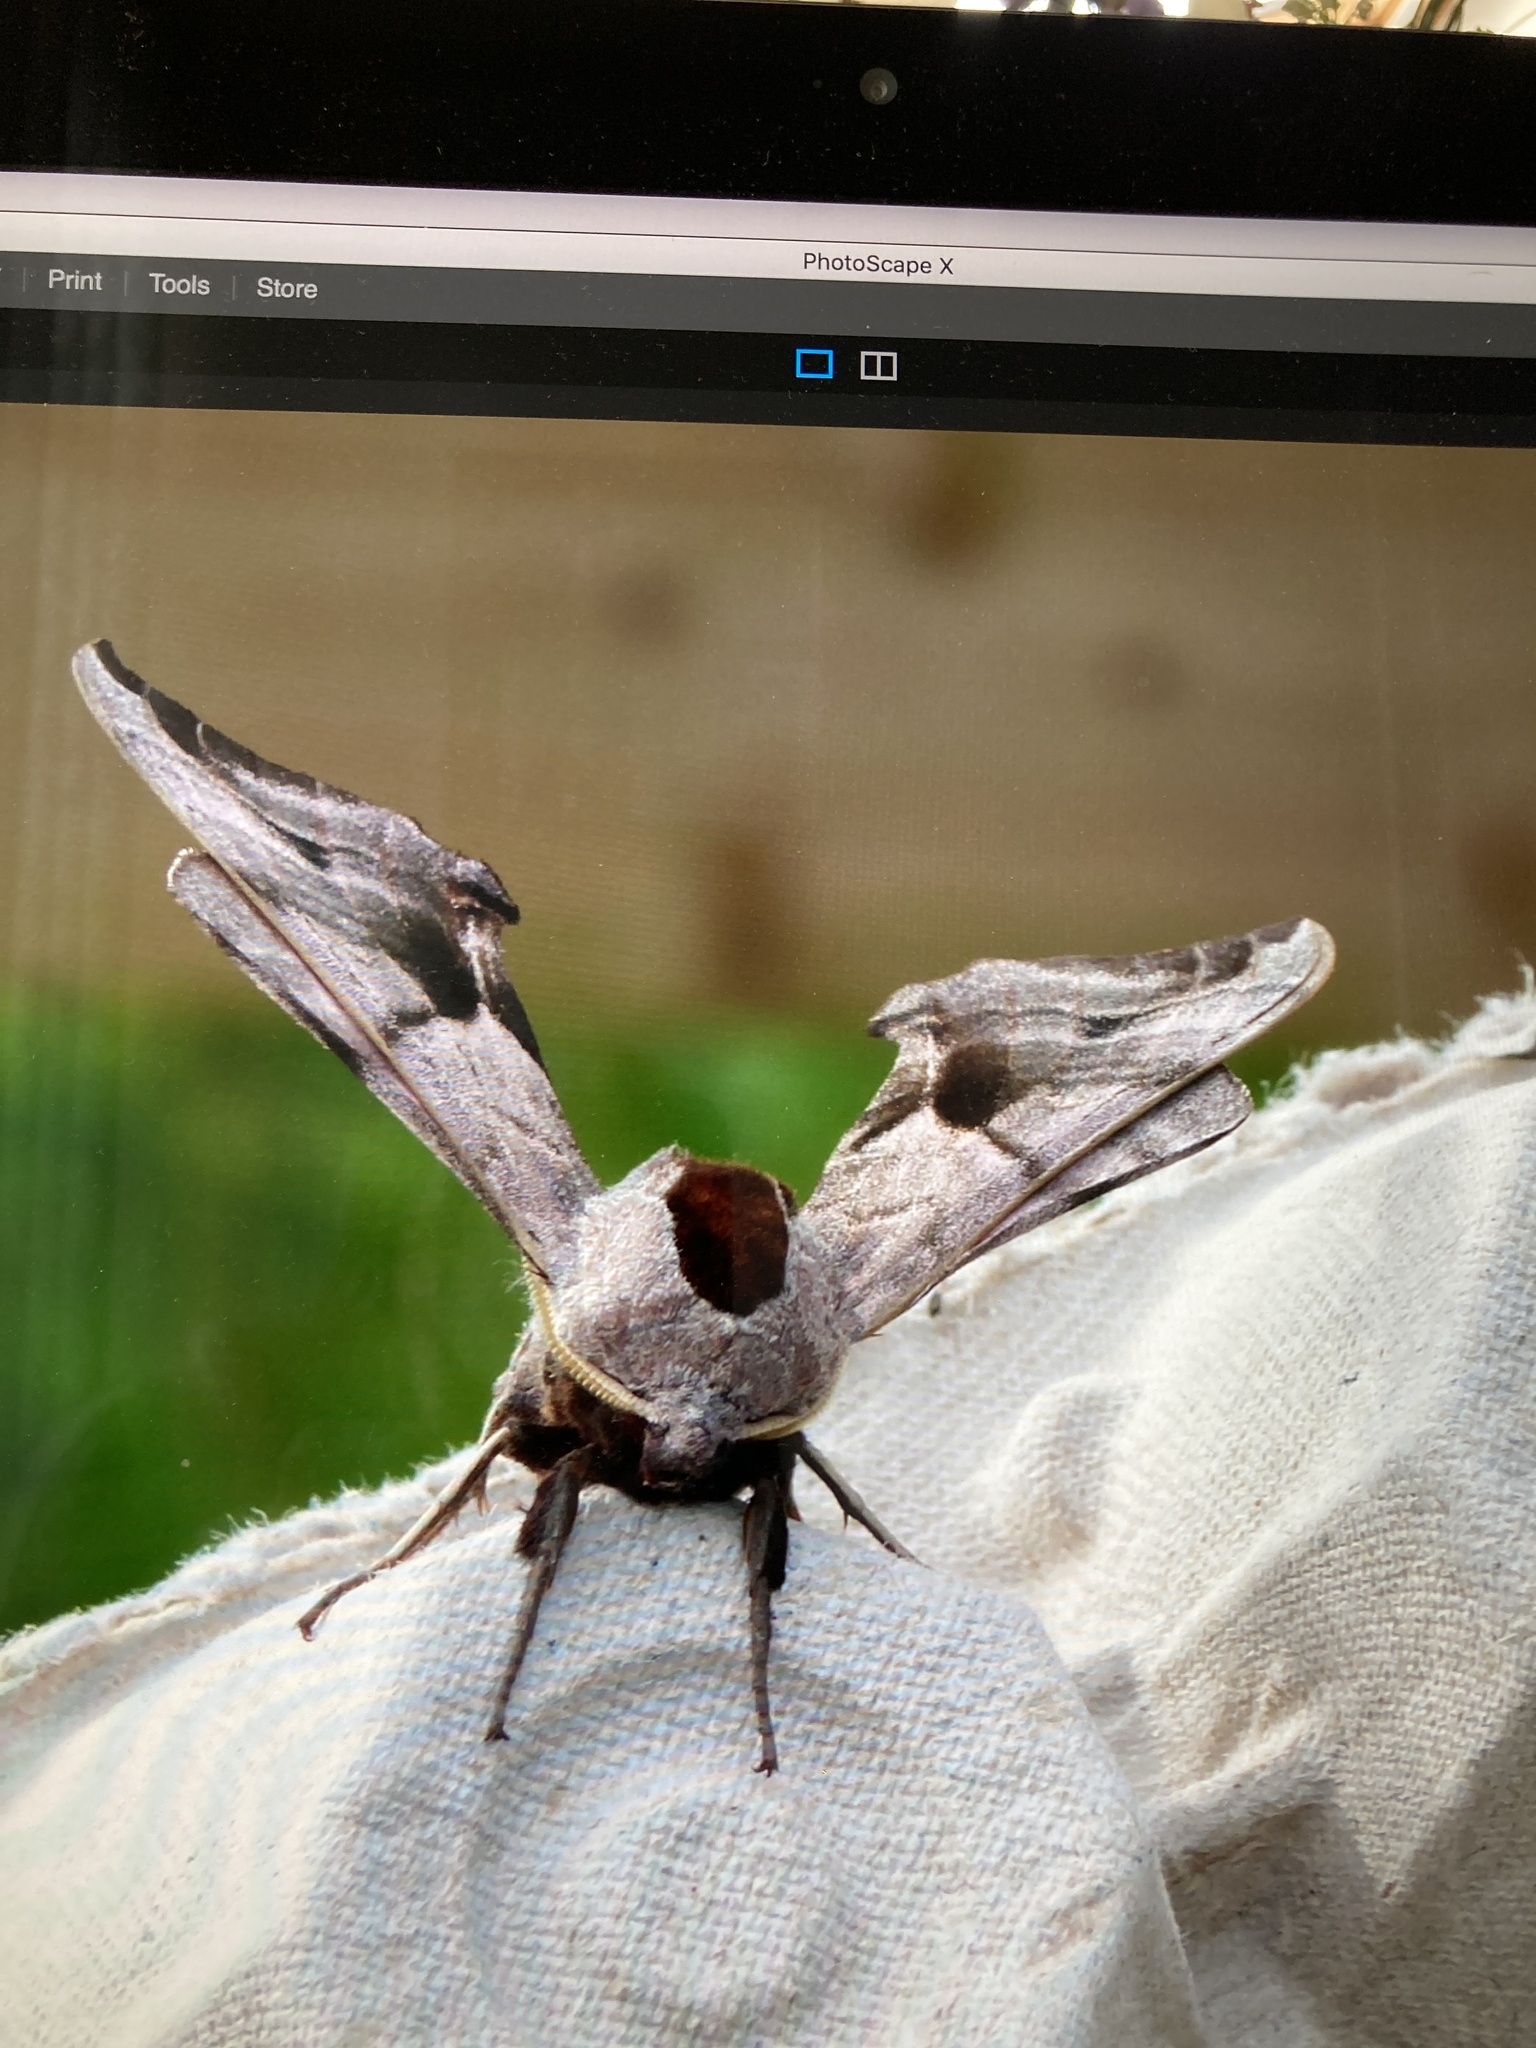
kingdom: Animalia
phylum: Arthropoda
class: Insecta
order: Lepidoptera
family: Sphingidae
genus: Smerinthus
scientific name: Smerinthus ocellata
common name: Eyed hawk-moth
